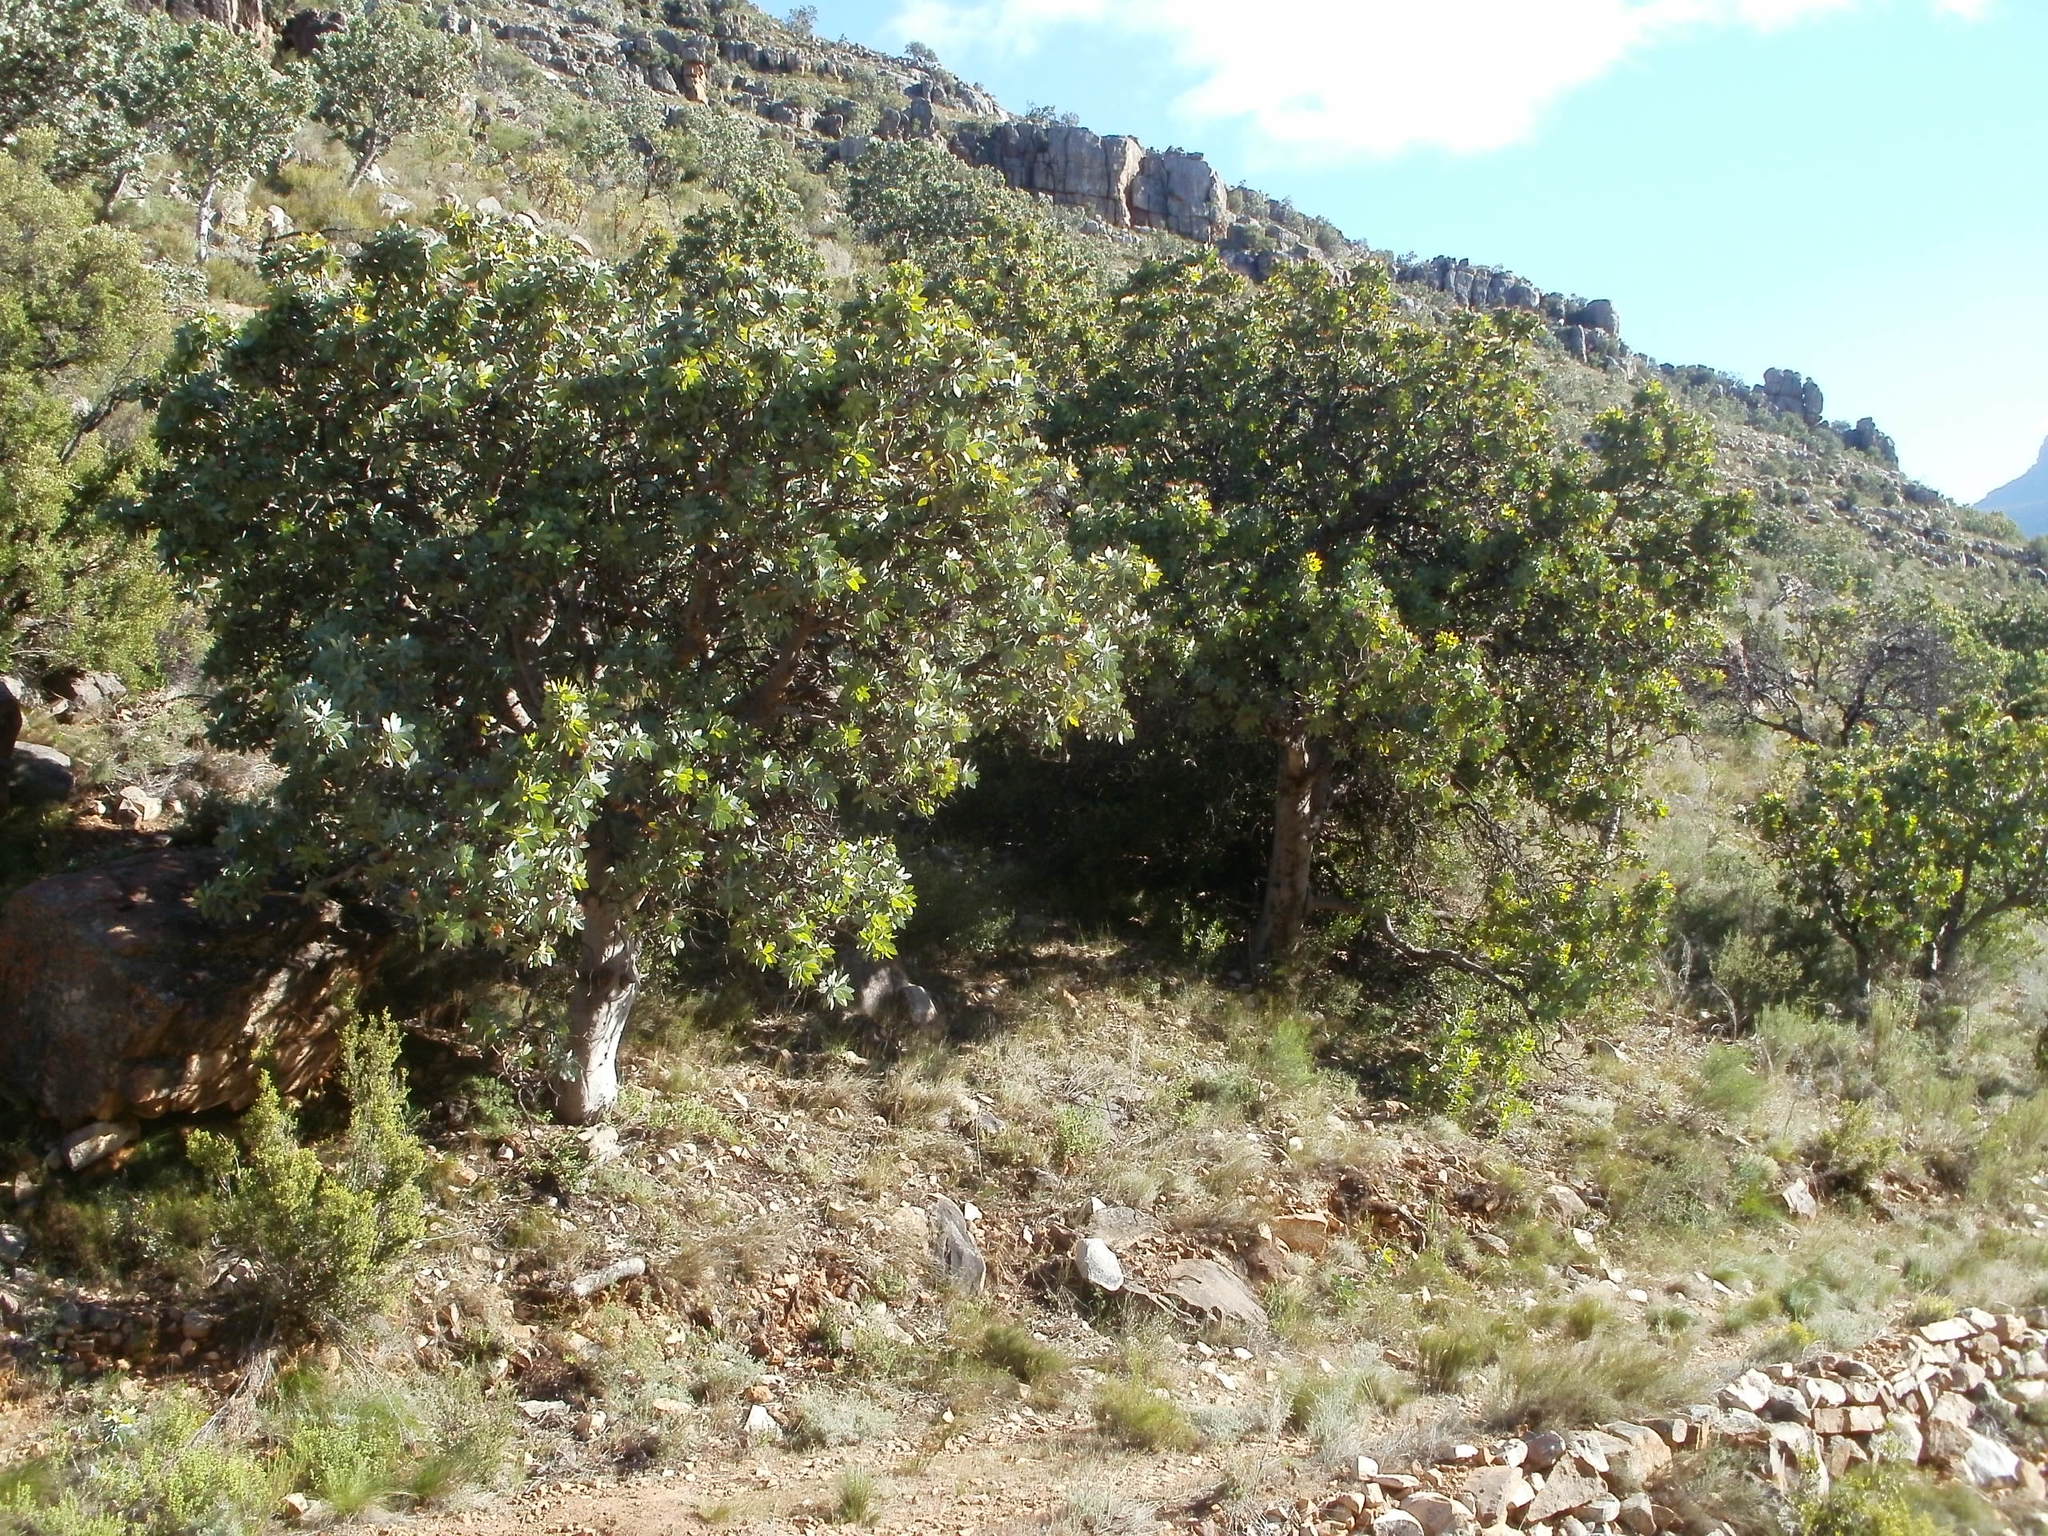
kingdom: Plantae
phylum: Tracheophyta
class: Magnoliopsida
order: Proteales
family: Proteaceae
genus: Protea
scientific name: Protea nitida
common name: Tree protea
